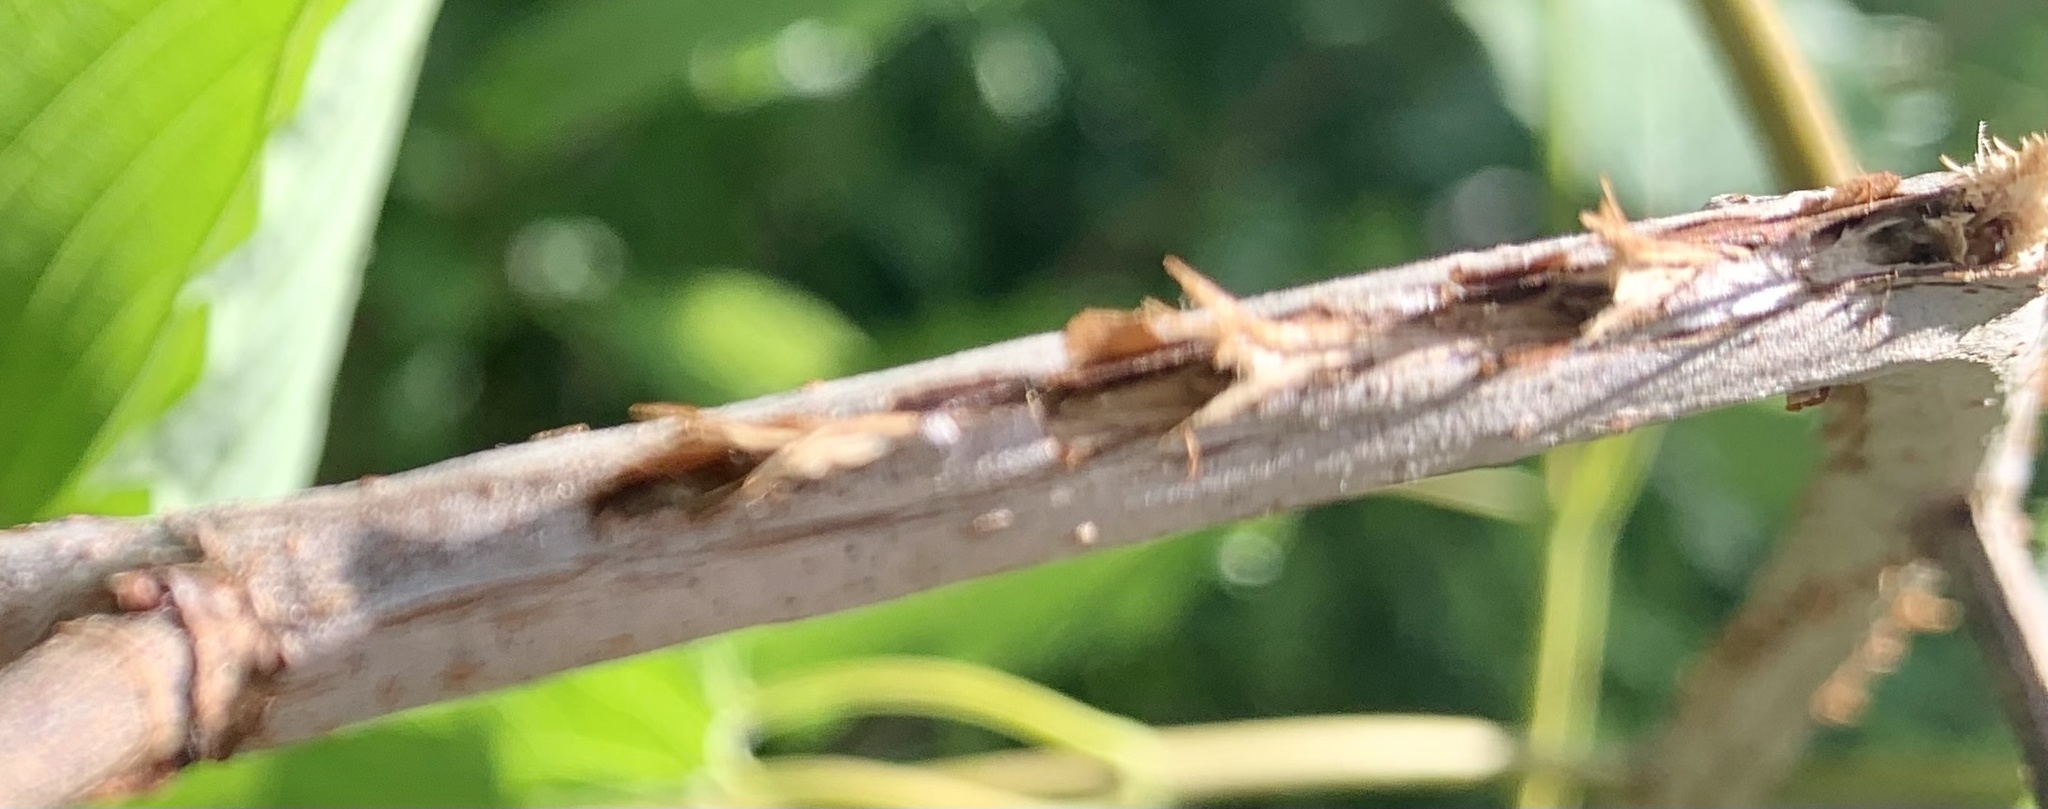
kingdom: Animalia
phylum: Arthropoda
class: Insecta
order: Hemiptera
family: Cicadidae
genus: Magicicada
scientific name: Magicicada
